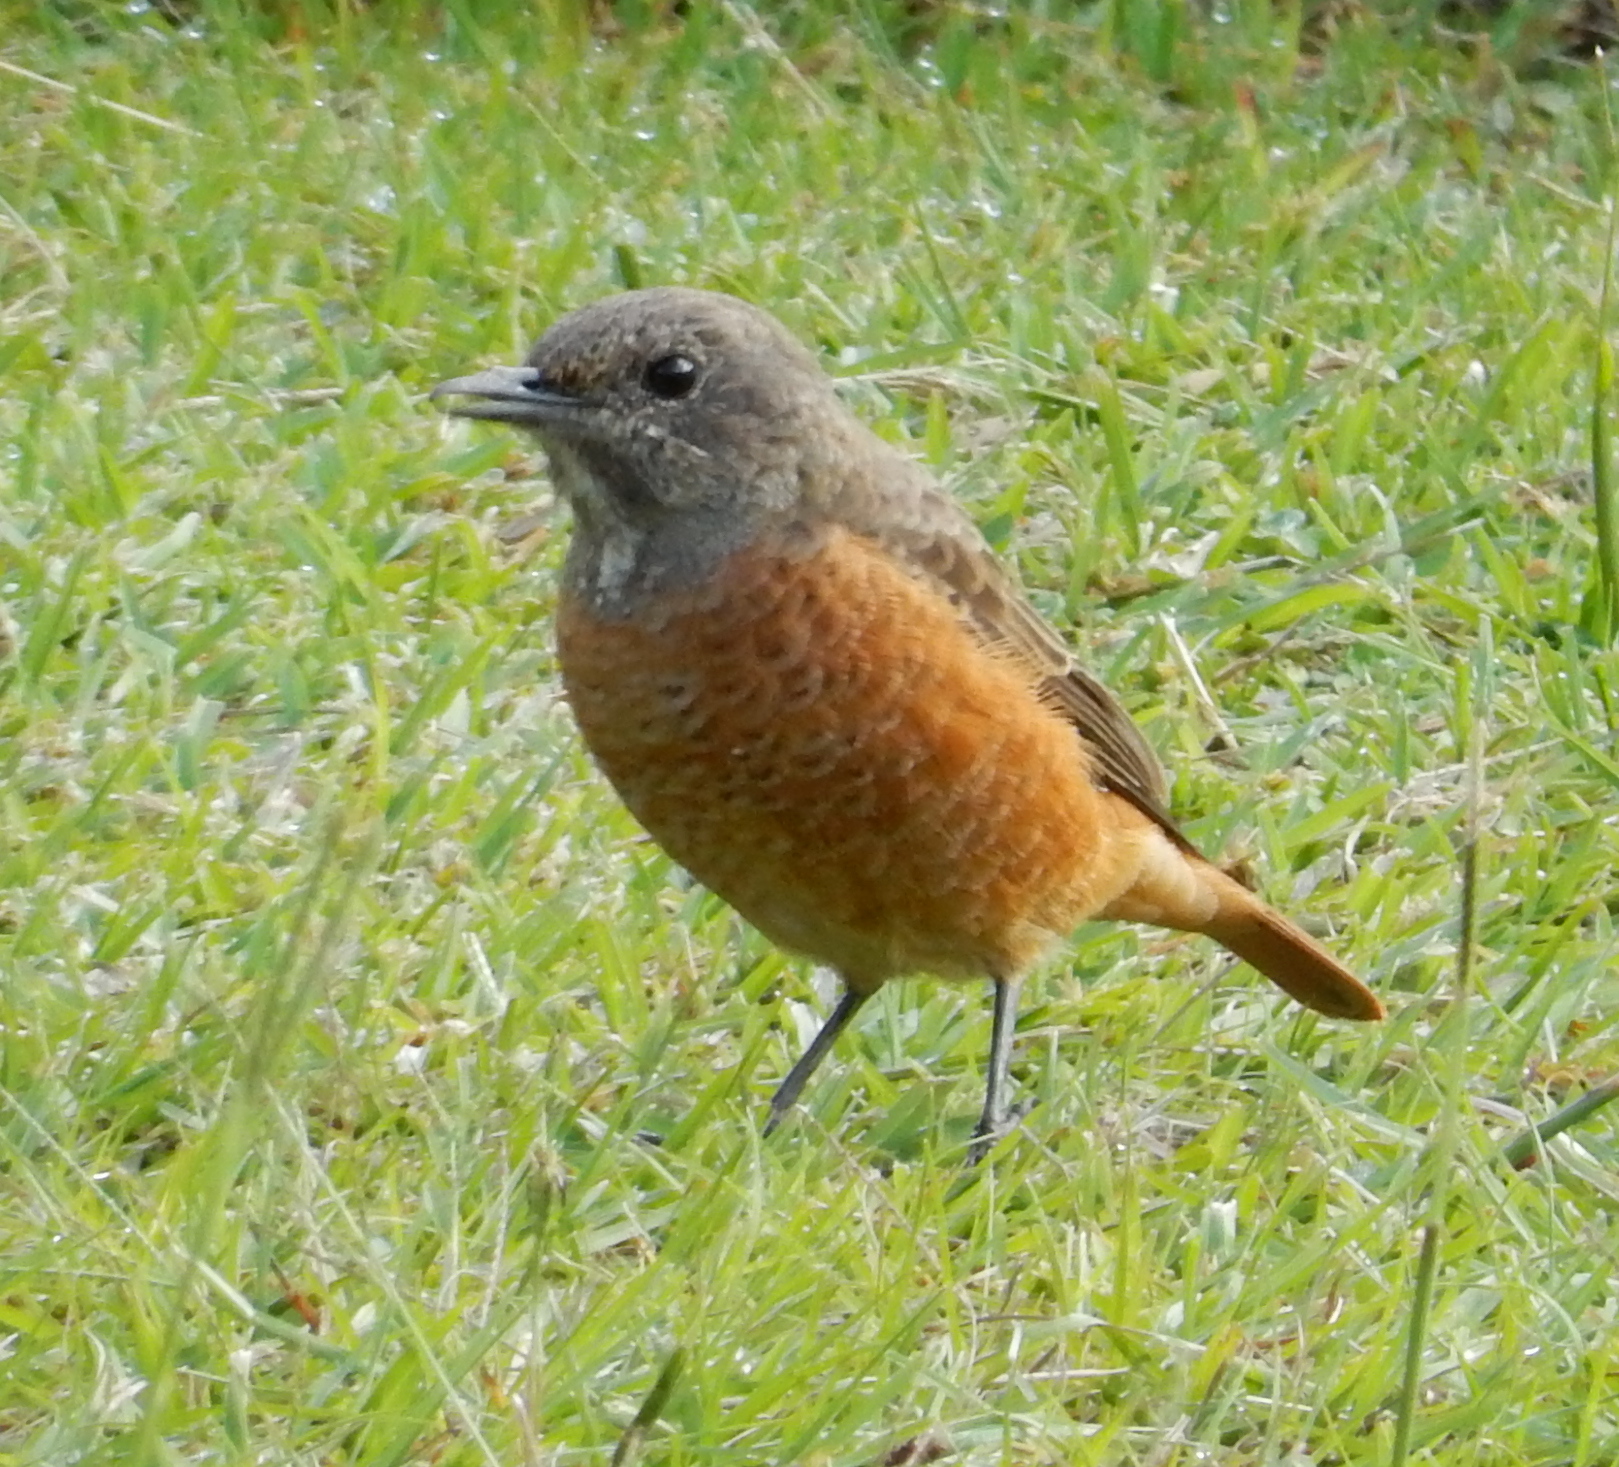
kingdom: Animalia
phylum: Chordata
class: Aves
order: Passeriformes
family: Muscicapidae
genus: Monticola
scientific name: Monticola rupestris
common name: Cape rock thrush
